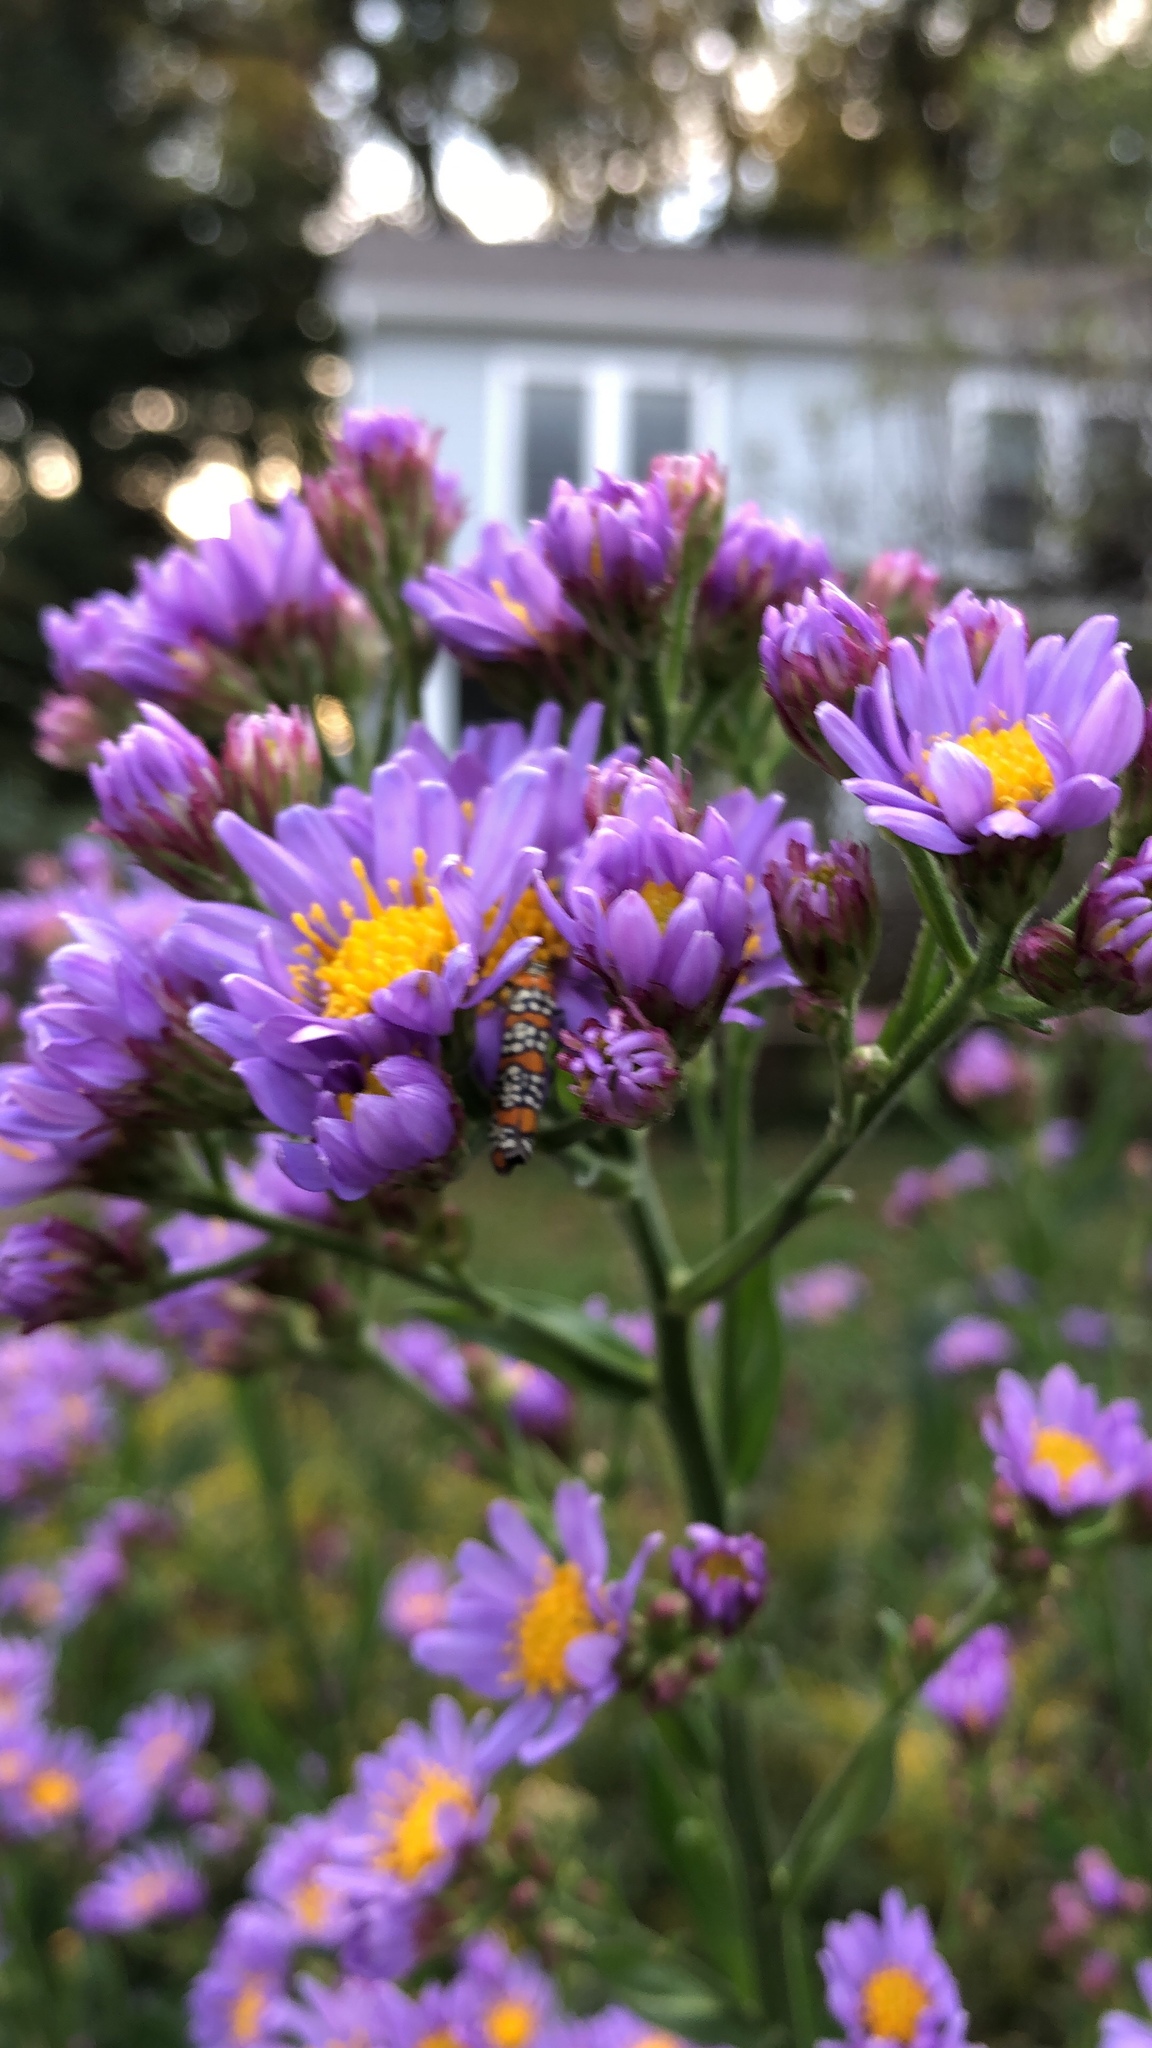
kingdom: Animalia
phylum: Arthropoda
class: Insecta
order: Lepidoptera
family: Attevidae
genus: Atteva
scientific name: Atteva punctella
